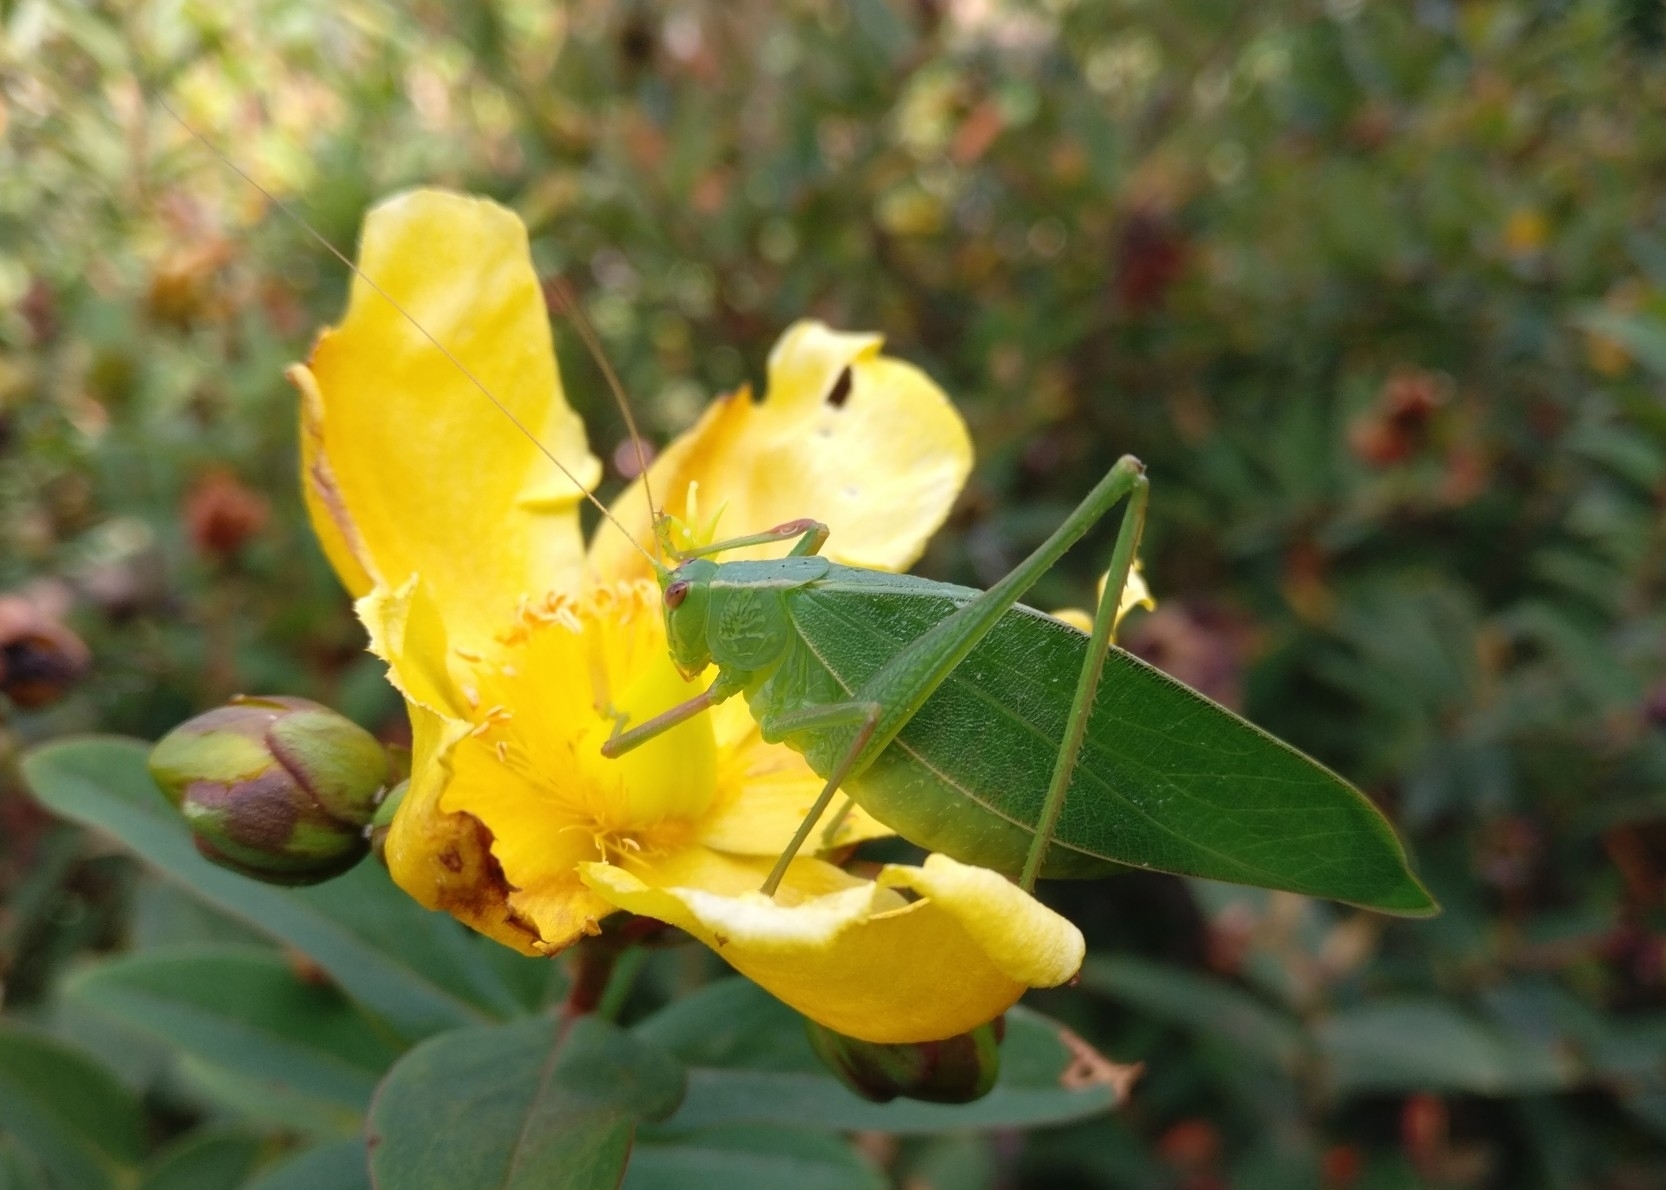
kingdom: Animalia
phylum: Arthropoda
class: Insecta
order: Orthoptera
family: Tettigoniidae
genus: Caedicia
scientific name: Caedicia simplex
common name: Common garden katydid
